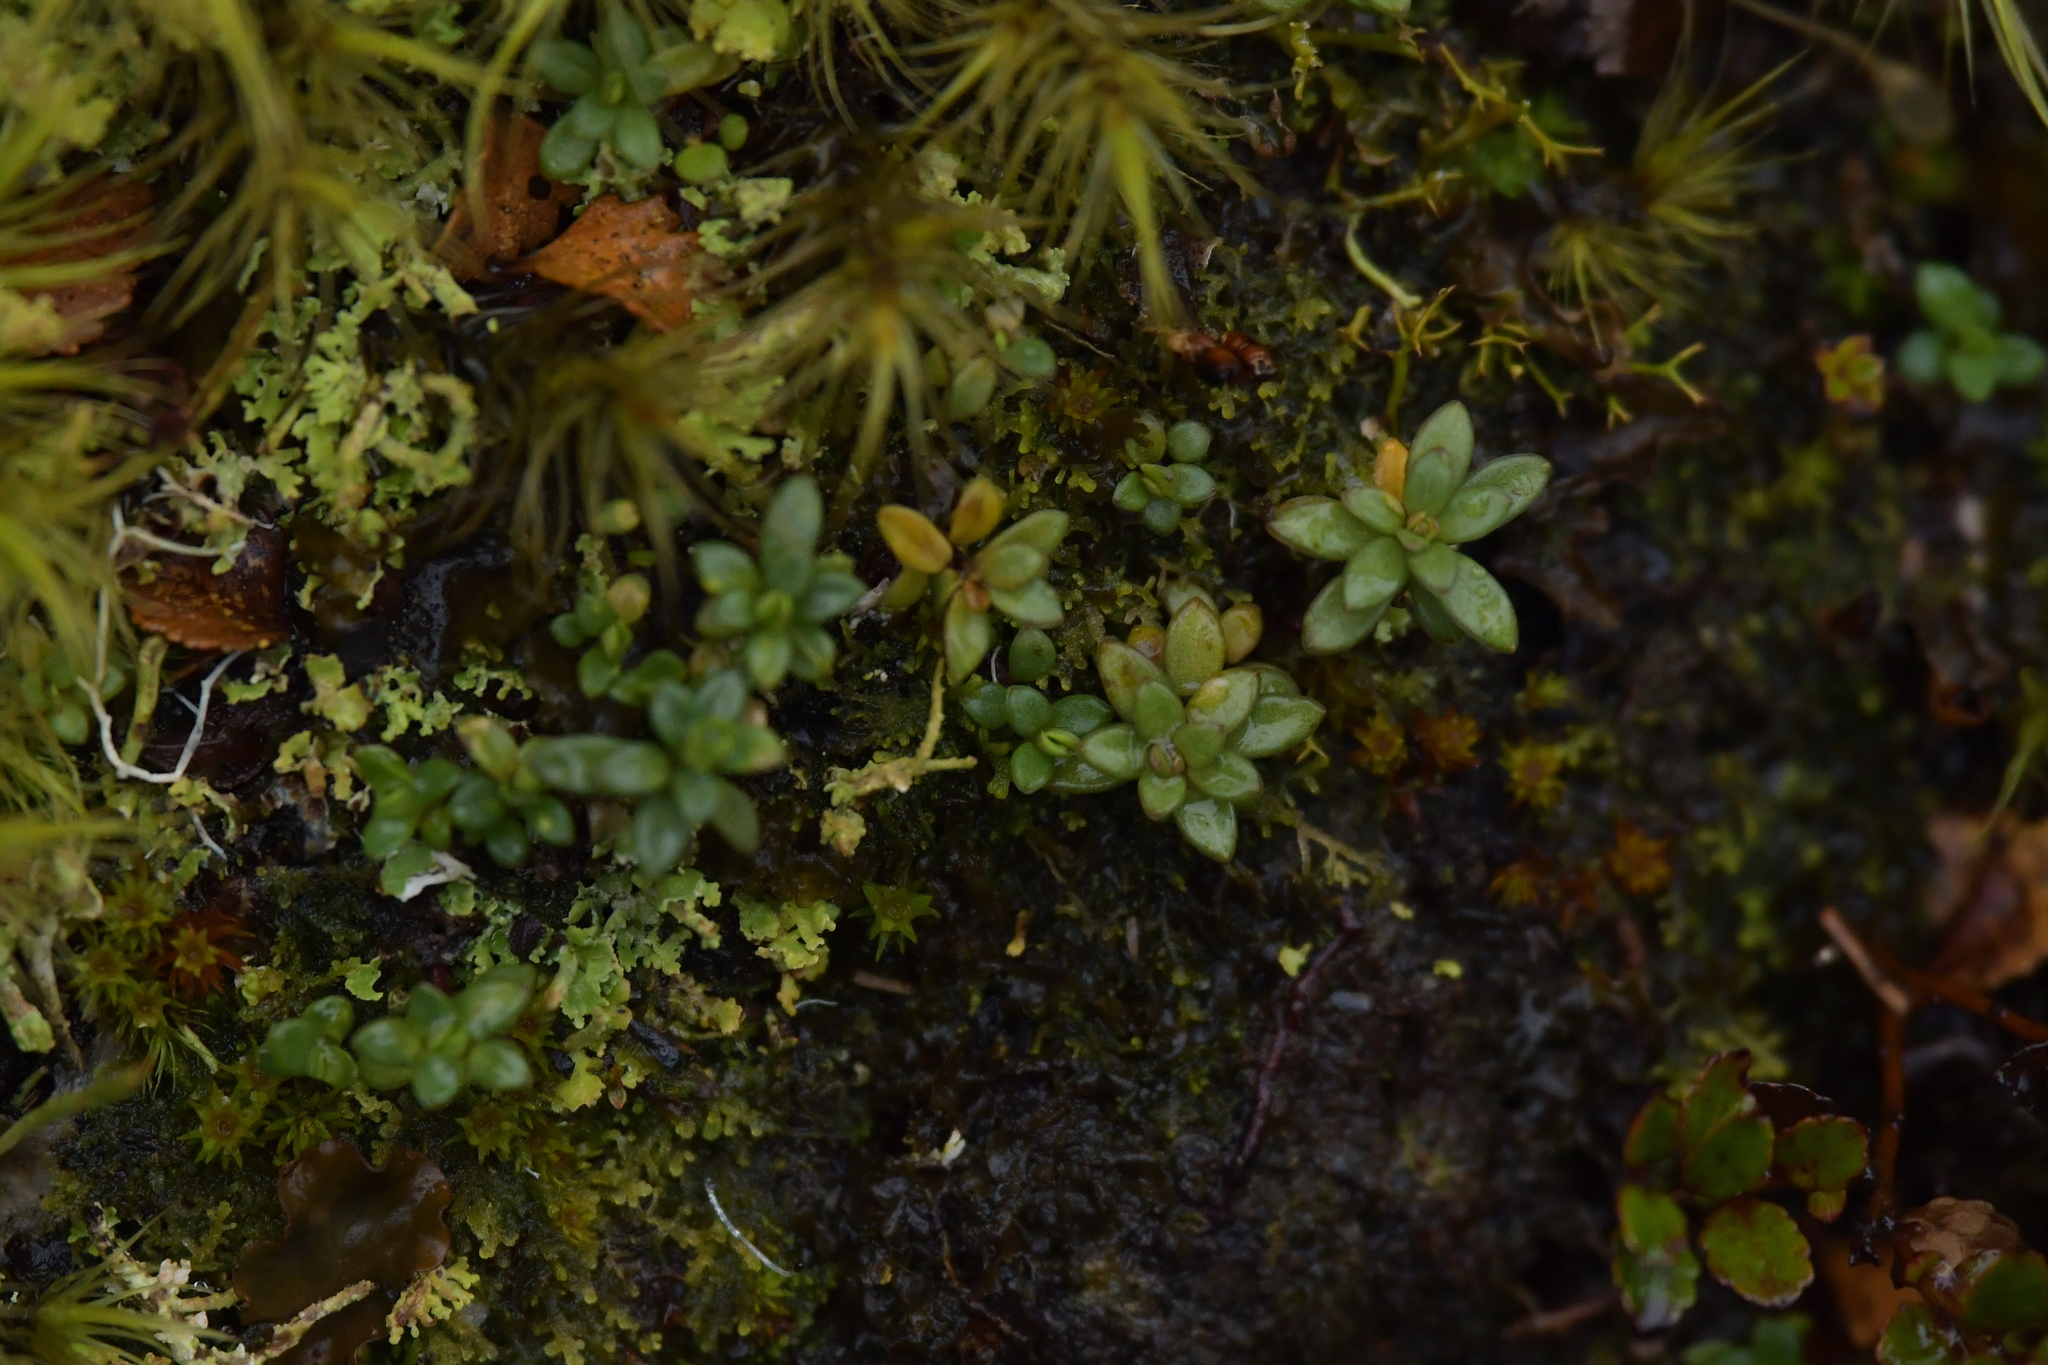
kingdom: Plantae
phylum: Tracheophyta
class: Magnoliopsida
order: Asterales
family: Stylidiaceae
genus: Forstera
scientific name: Forstera tenella
